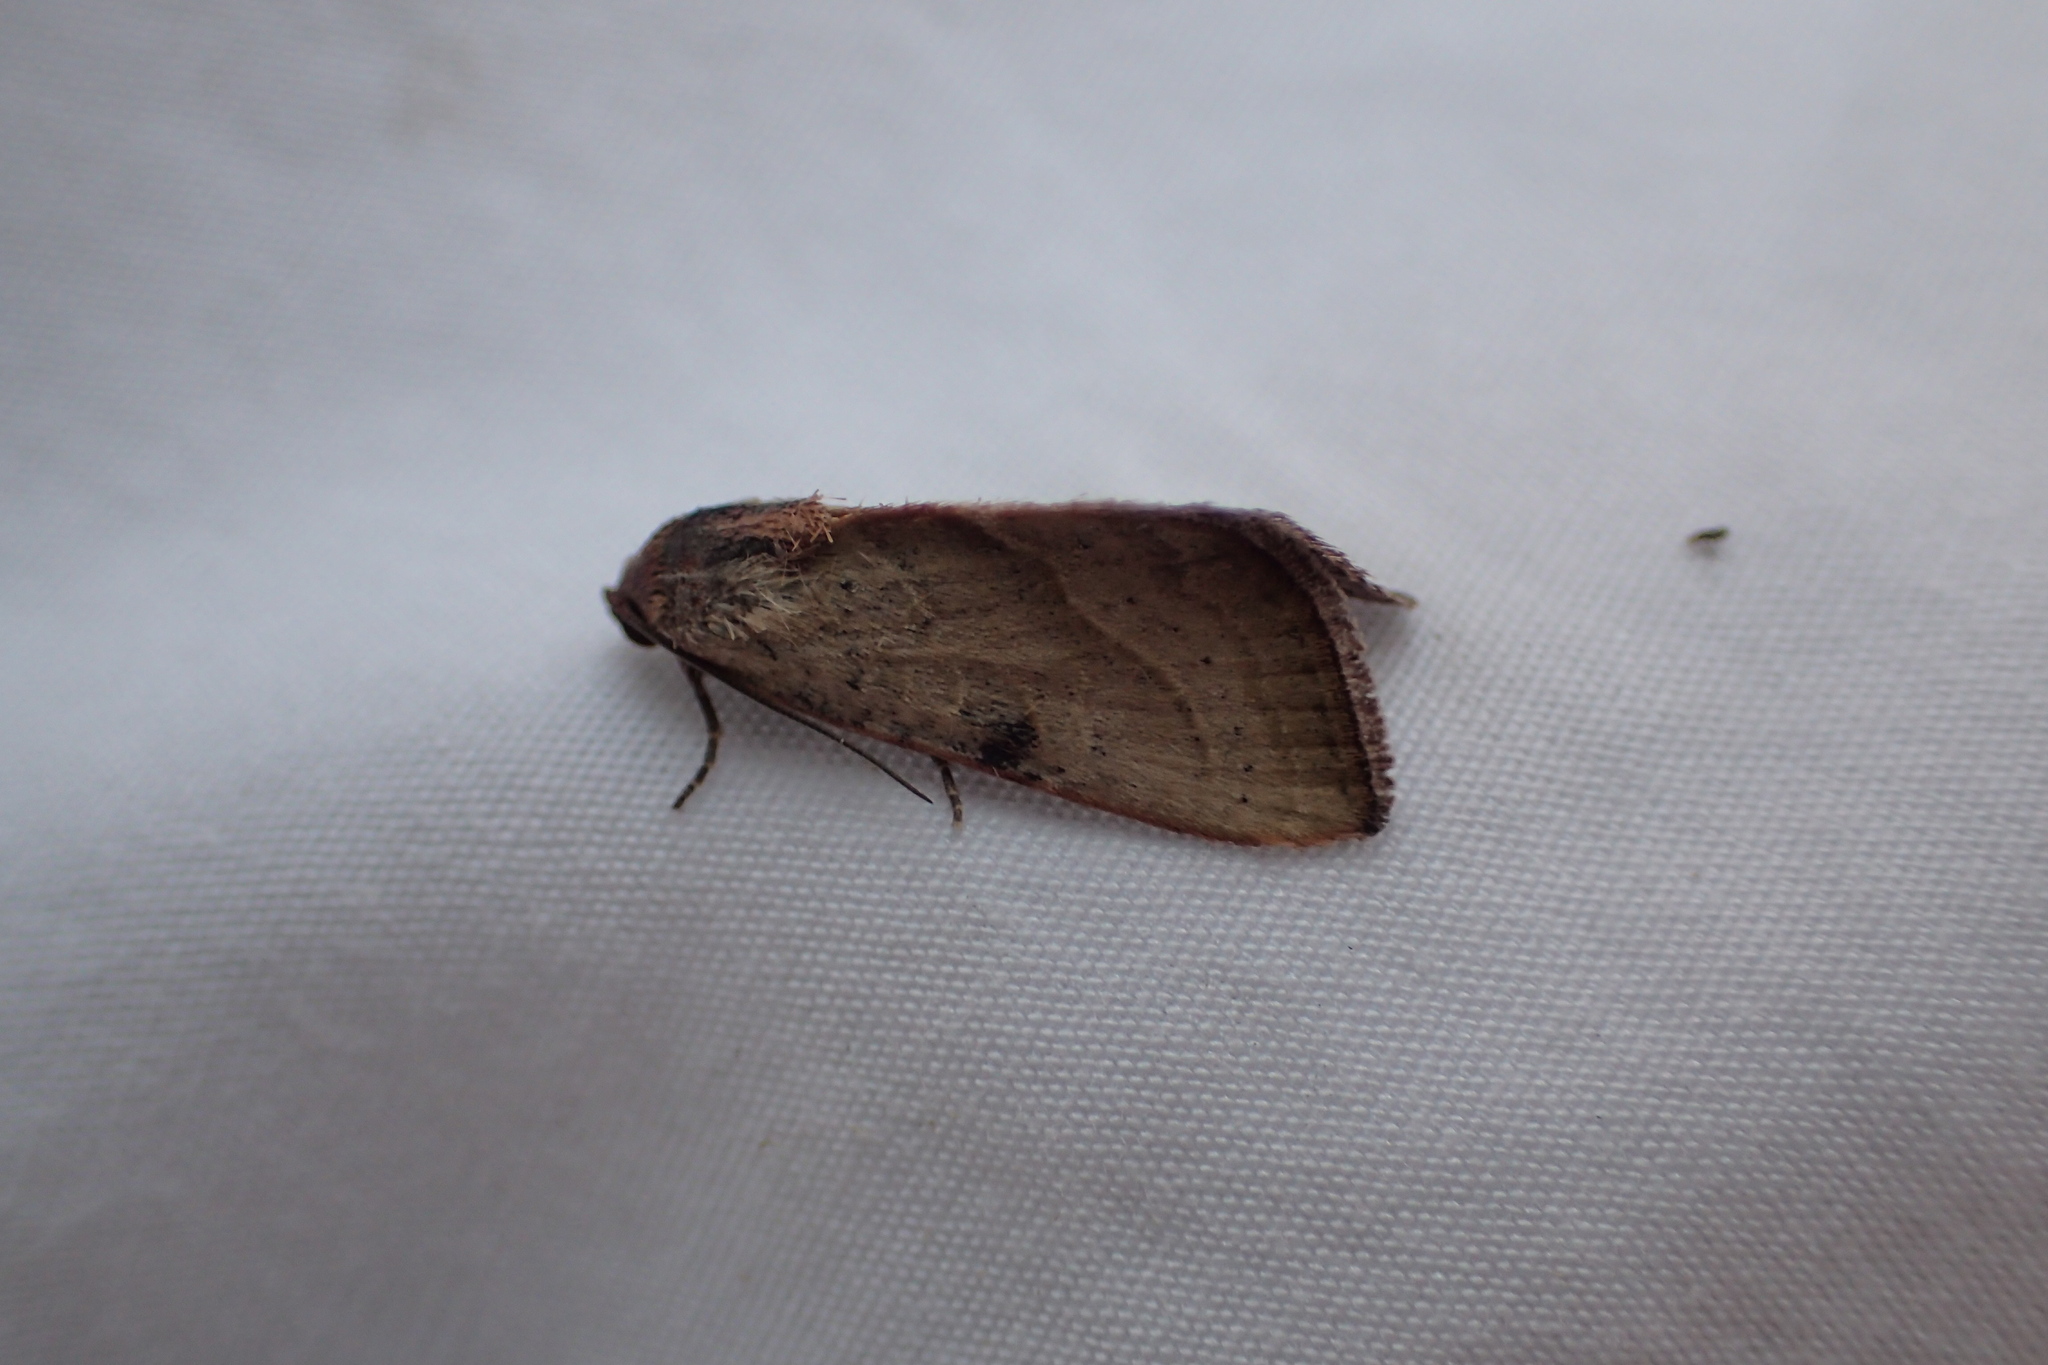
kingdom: Animalia
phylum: Arthropoda
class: Insecta
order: Lepidoptera
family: Noctuidae
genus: Galgula
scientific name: Galgula partita
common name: Wedgeling
